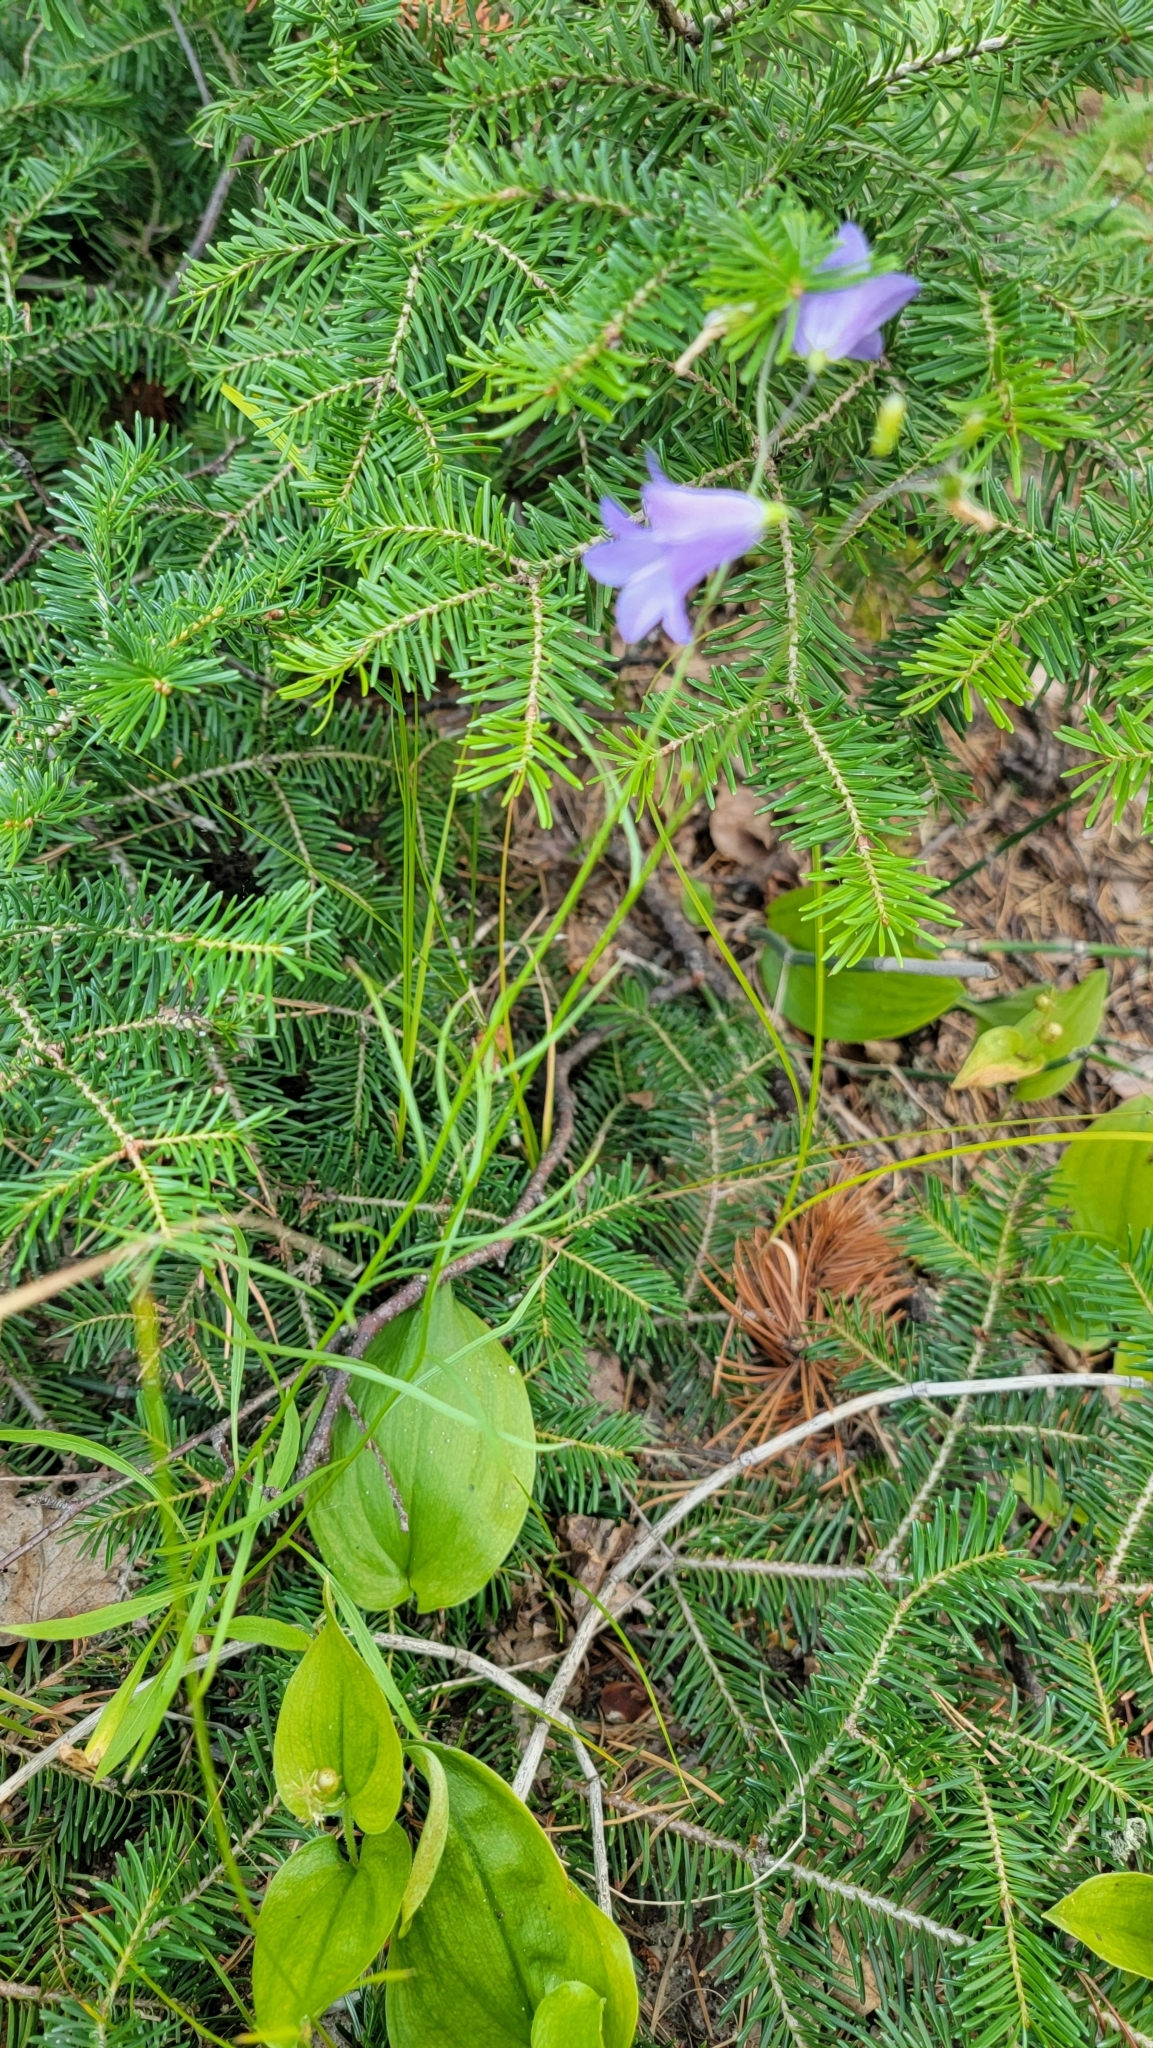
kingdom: Plantae
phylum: Tracheophyta
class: Magnoliopsida
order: Asterales
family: Campanulaceae
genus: Campanula
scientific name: Campanula alaskana
